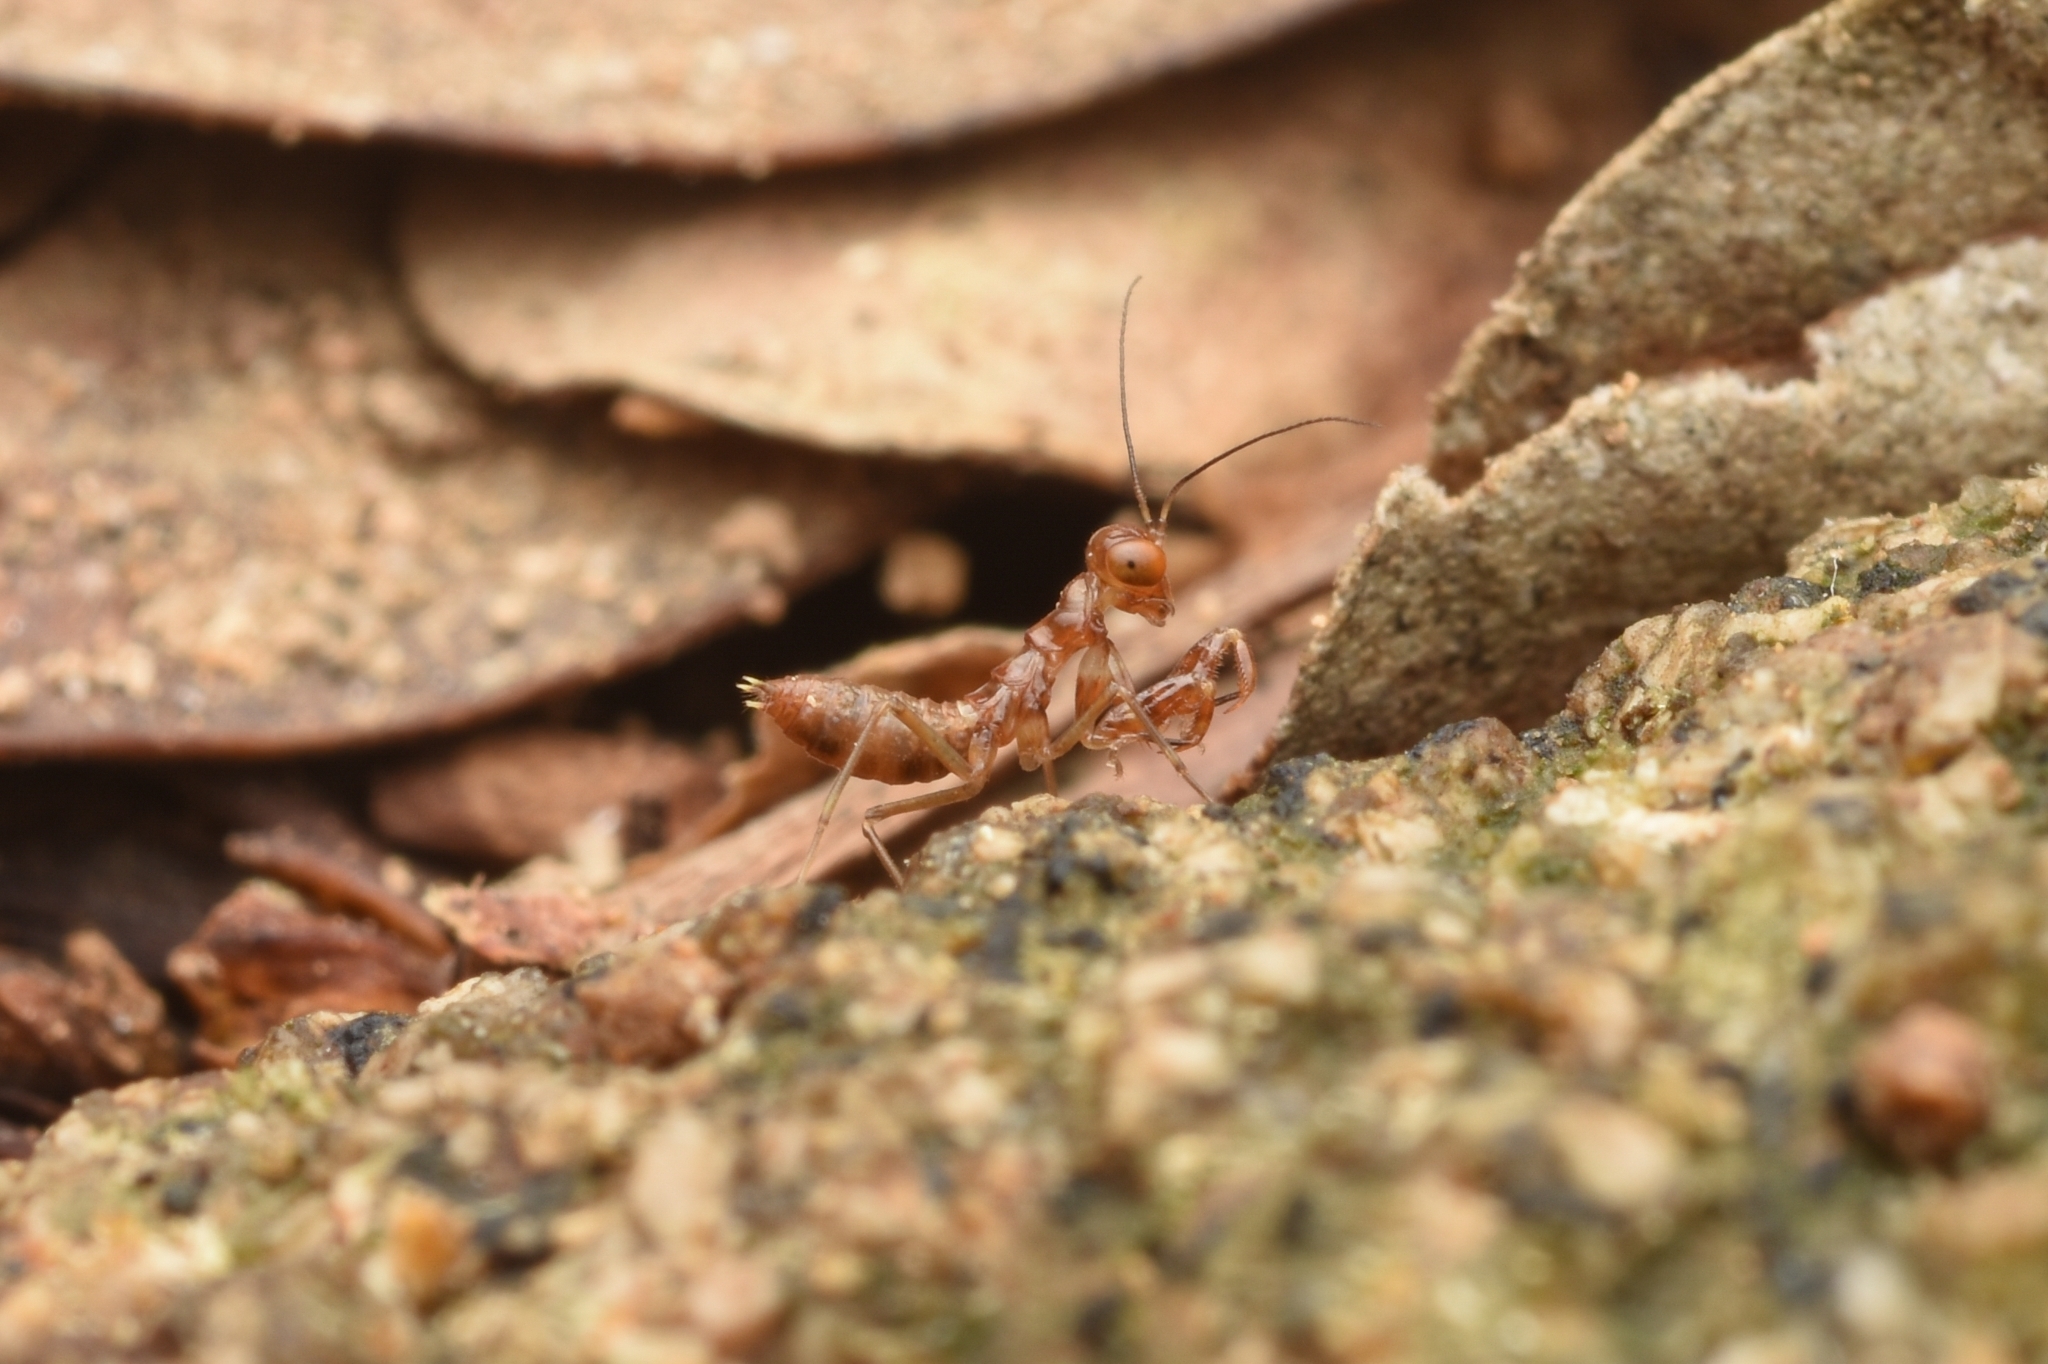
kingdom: Animalia
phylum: Arthropoda
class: Insecta
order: Mantodea
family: Gonypetidae
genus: Amantis
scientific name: Amantis nawai
